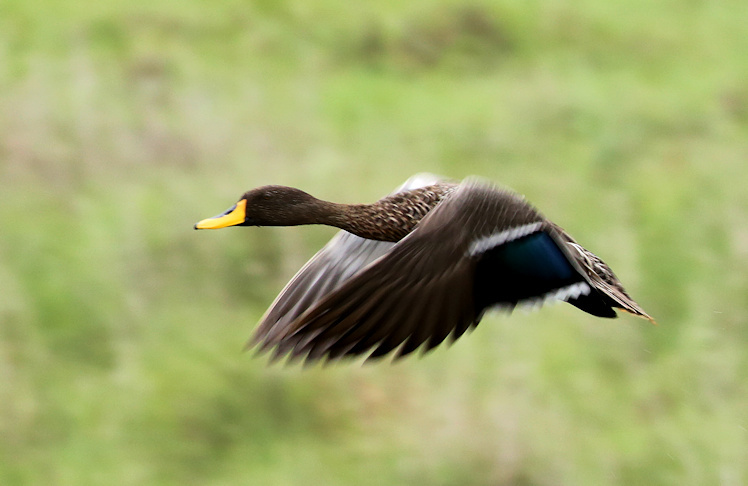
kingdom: Animalia
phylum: Chordata
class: Aves
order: Anseriformes
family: Anatidae
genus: Anas
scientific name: Anas undulata
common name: Yellow-billed duck
